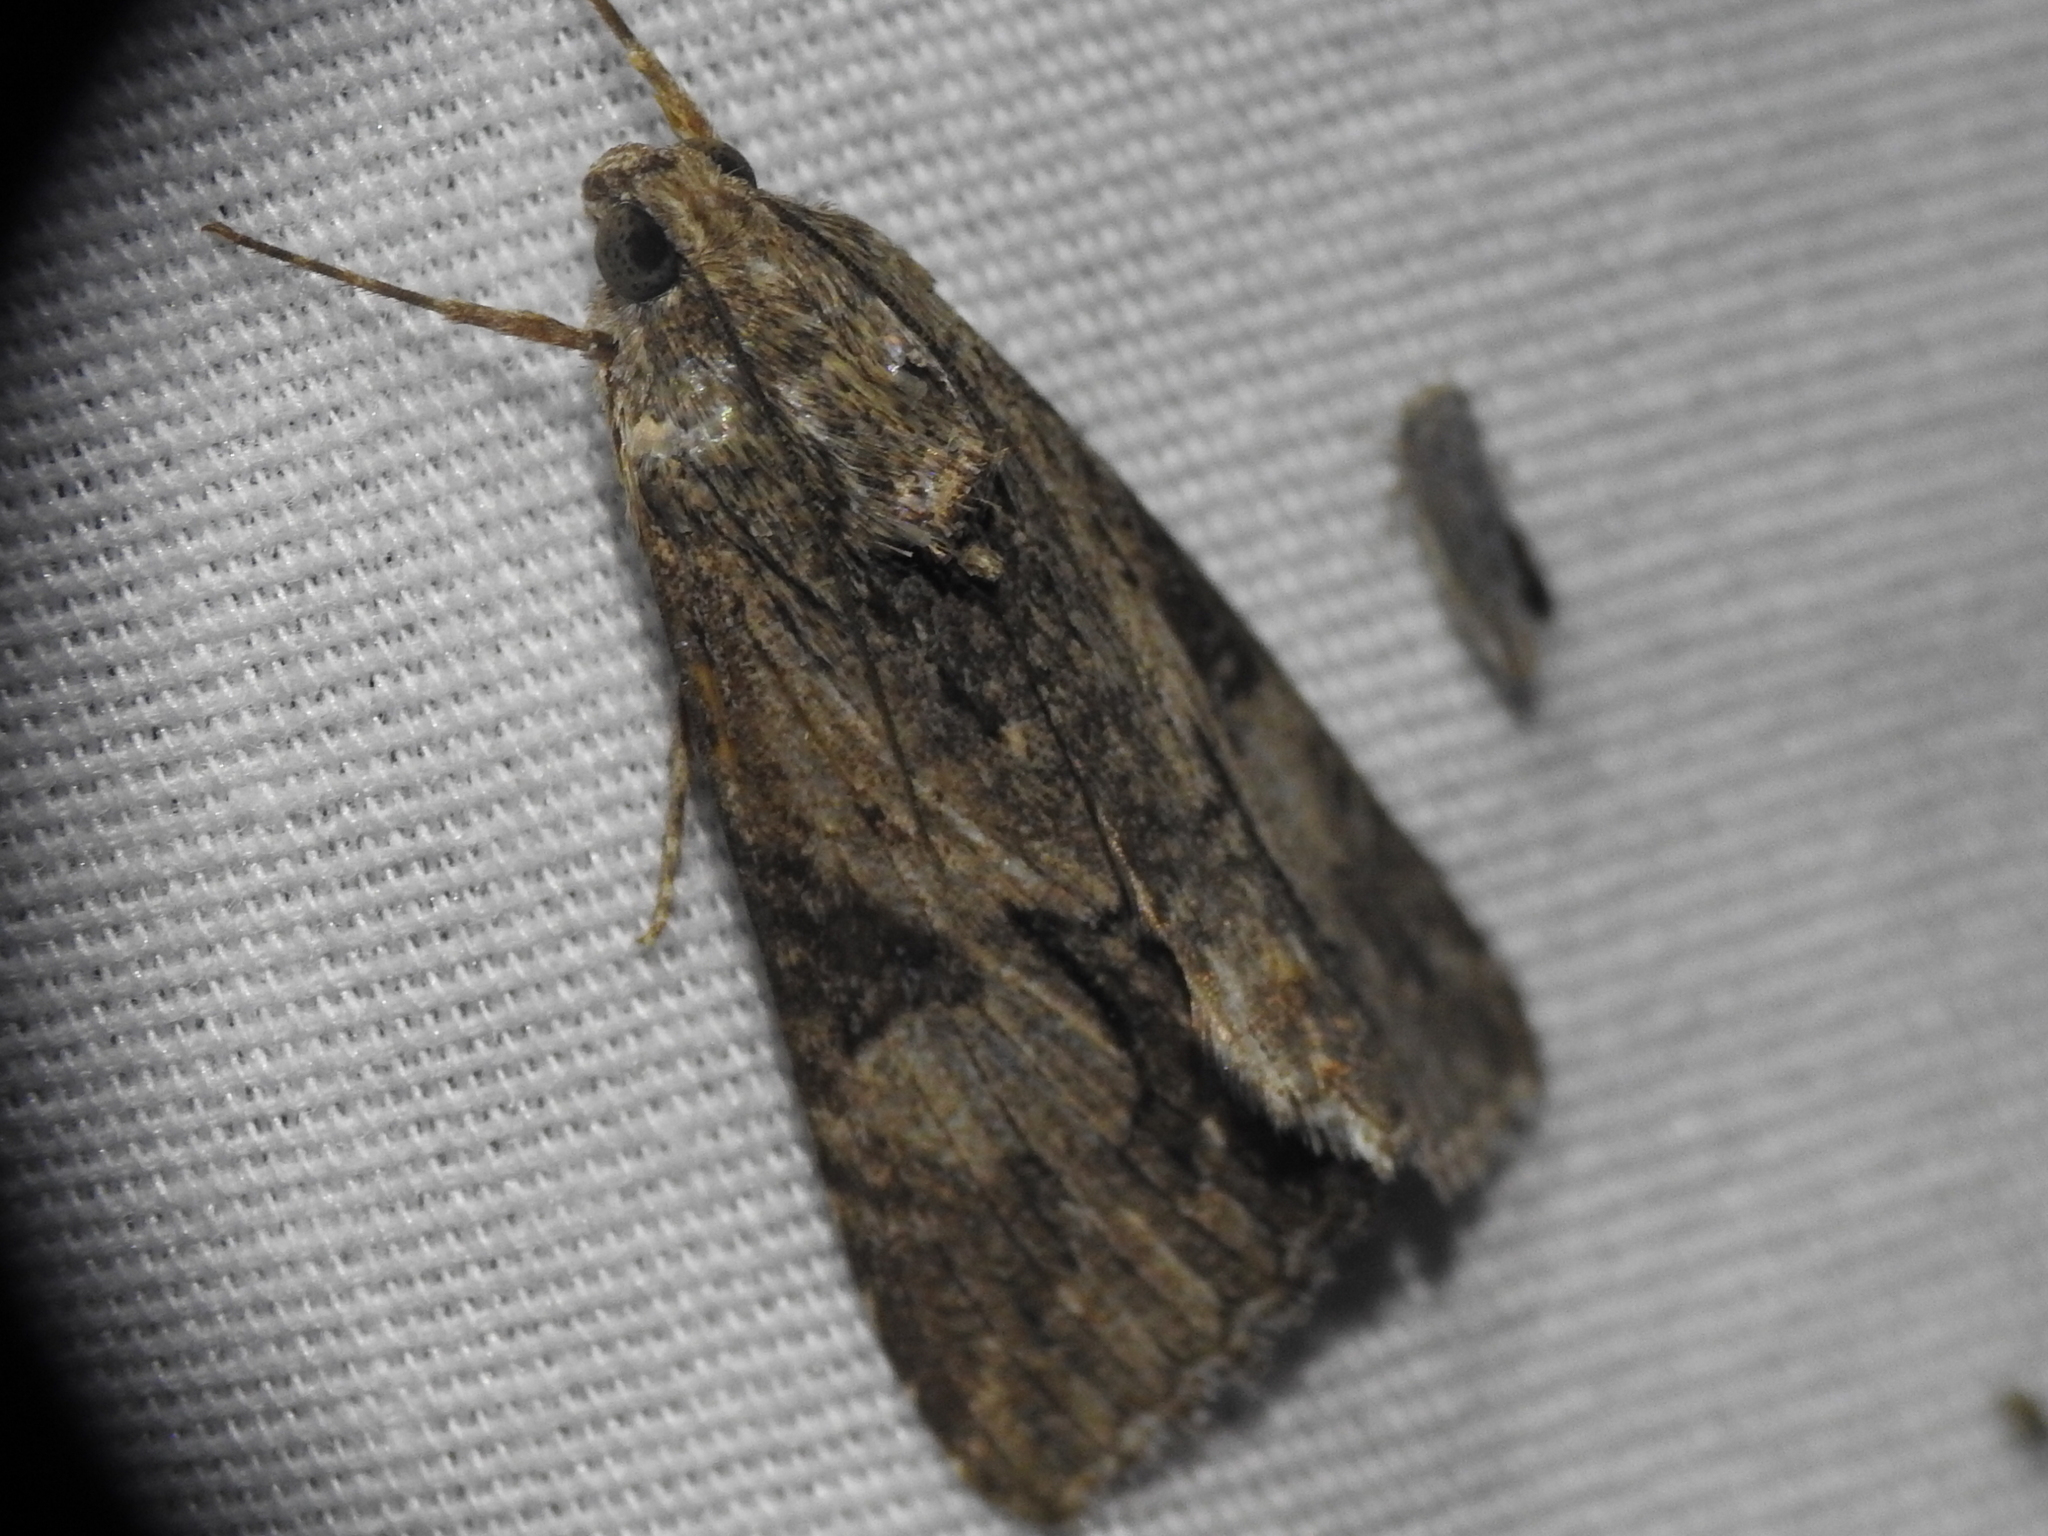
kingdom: Animalia
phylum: Arthropoda
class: Insecta
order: Lepidoptera
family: Erebidae
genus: Melipotis
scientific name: Melipotis jucunda
